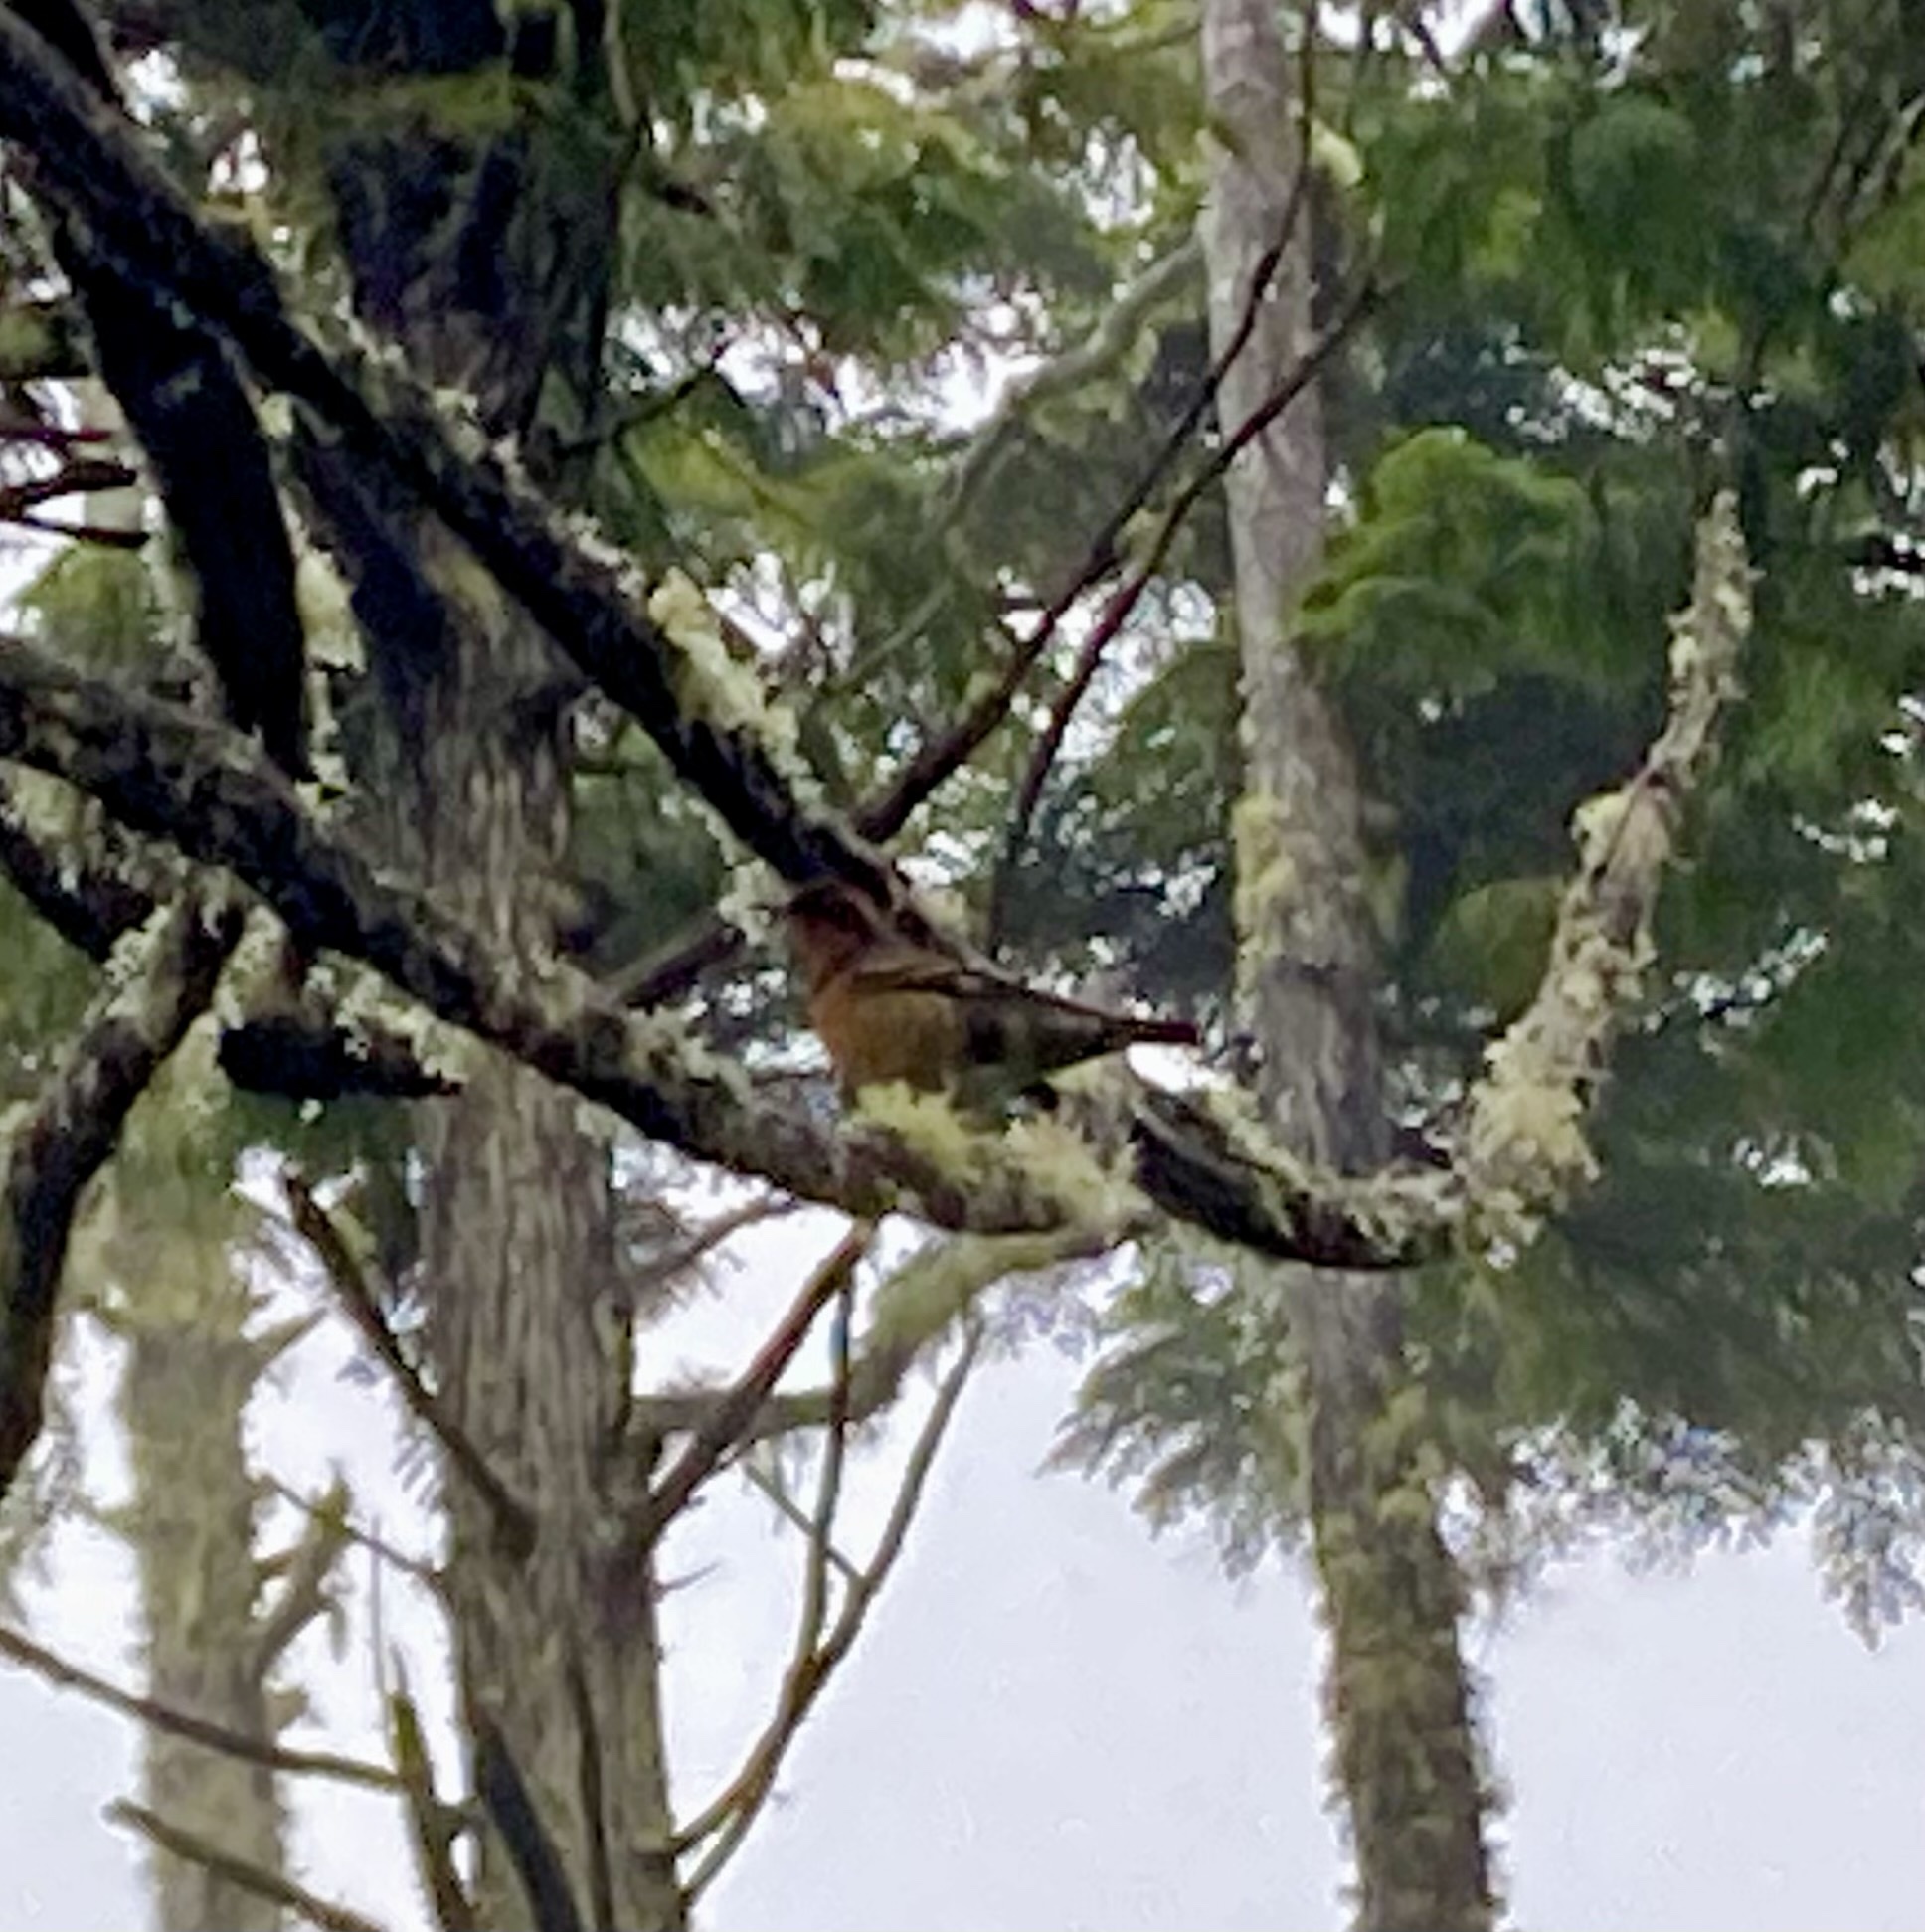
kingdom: Animalia
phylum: Chordata
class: Aves
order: Passeriformes
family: Turdidae
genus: Ixoreus
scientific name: Ixoreus naevius
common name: Varied thrush
